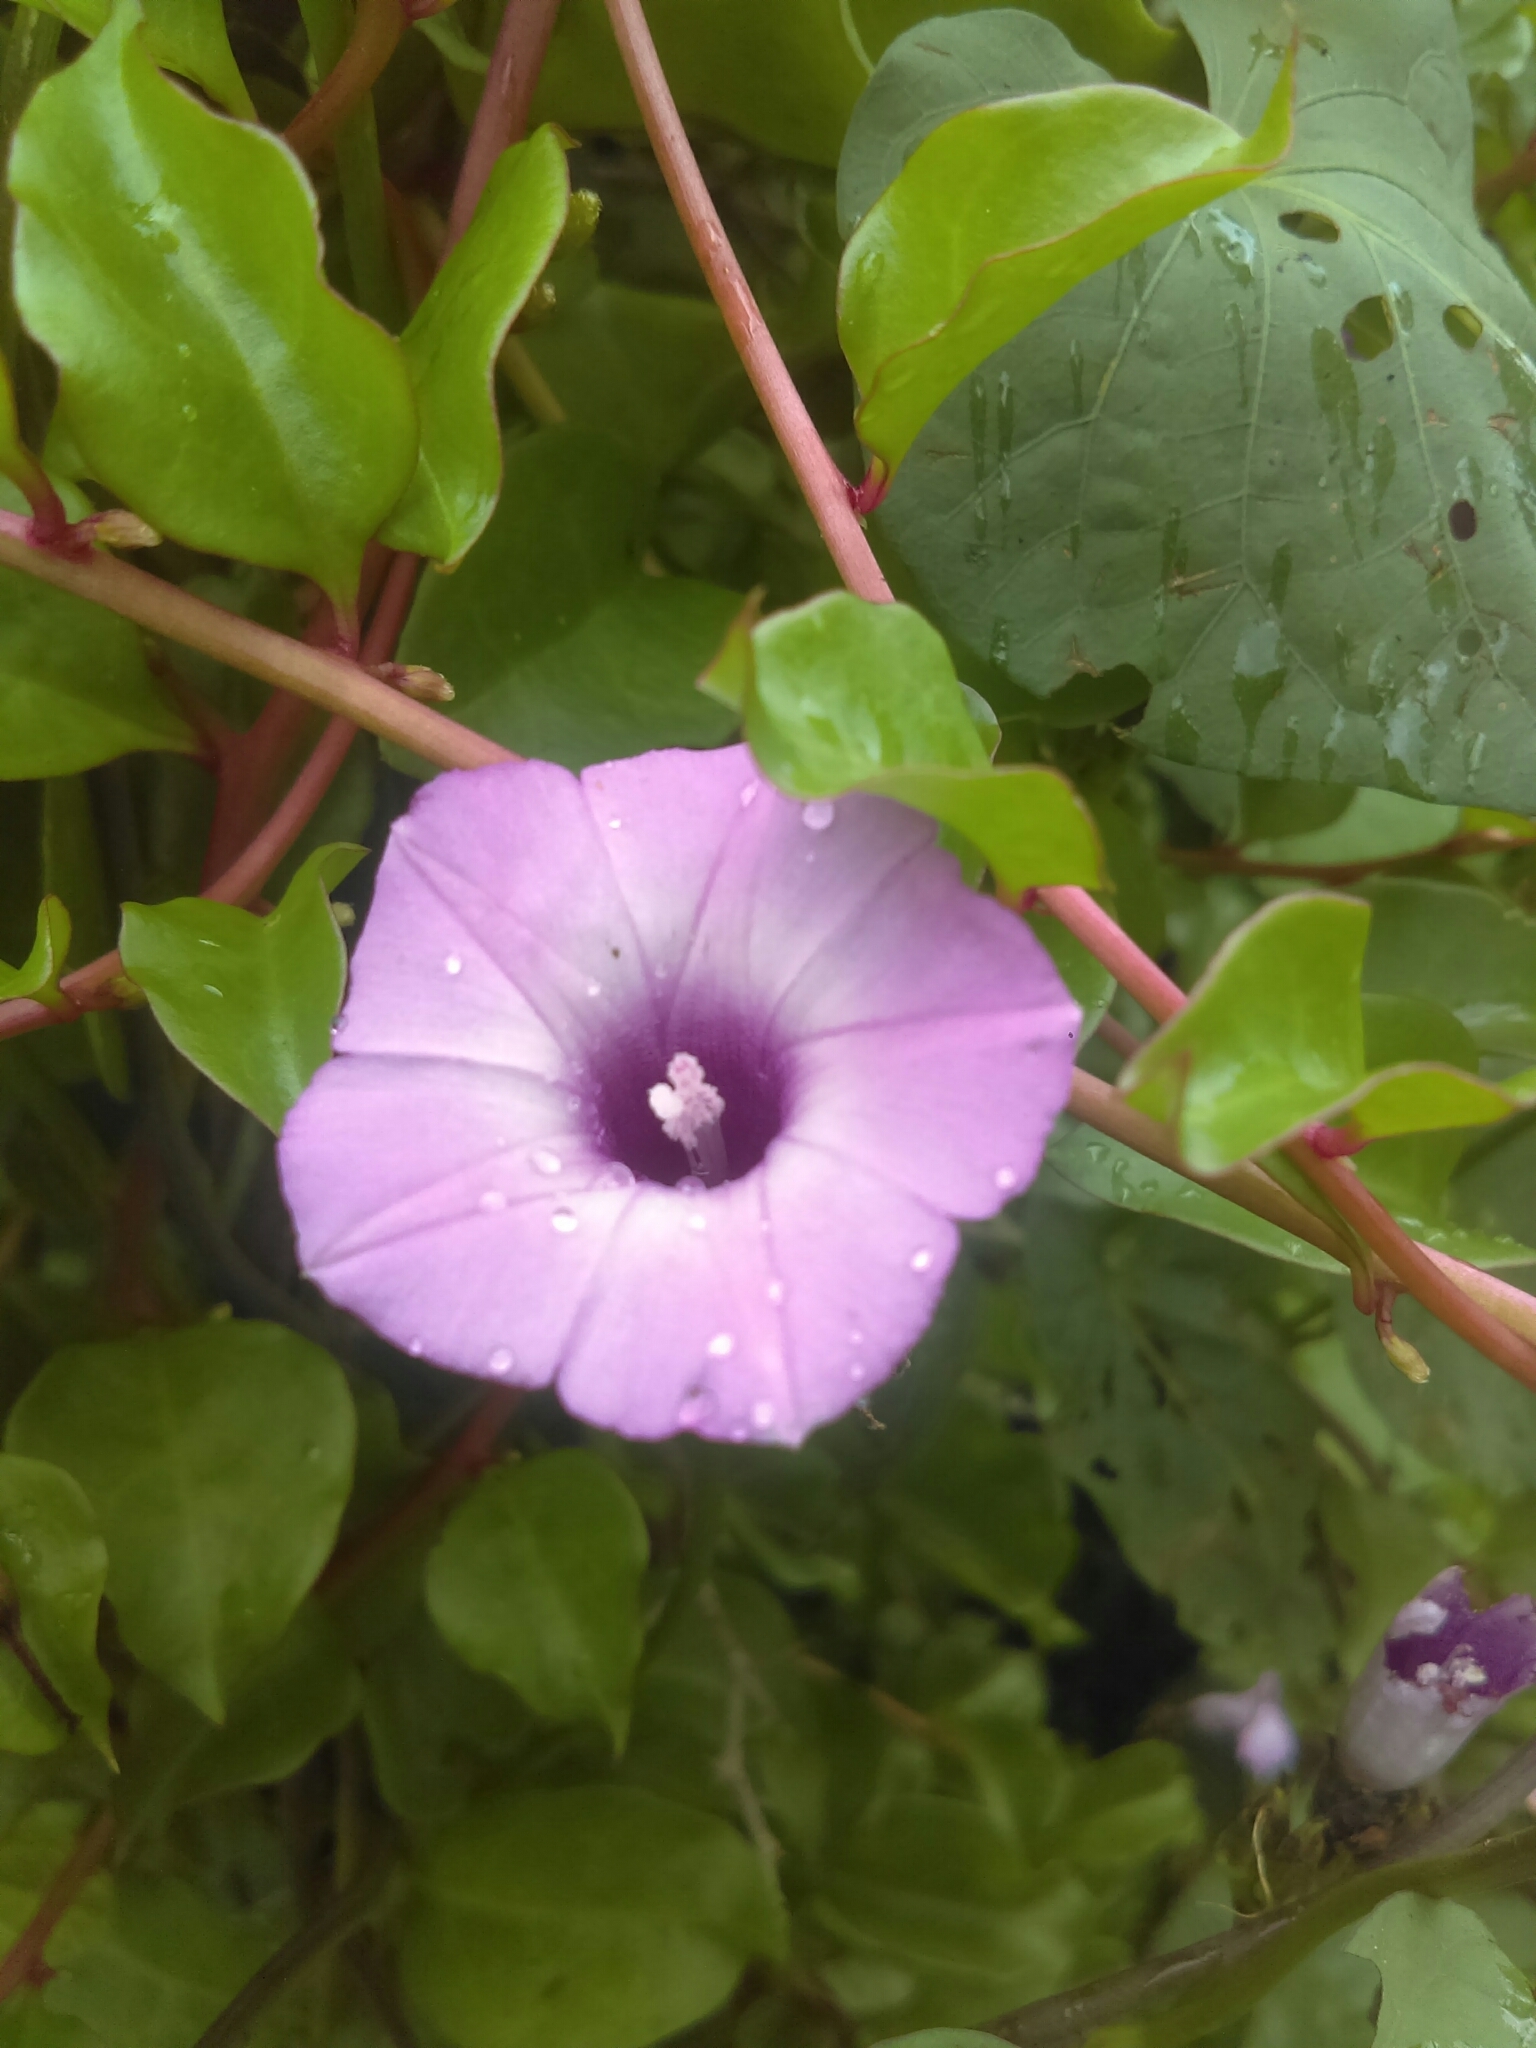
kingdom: Plantae
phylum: Tracheophyta
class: Magnoliopsida
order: Solanales
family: Convolvulaceae
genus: Ipomoea
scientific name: Ipomoea triloba
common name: Little-bell
